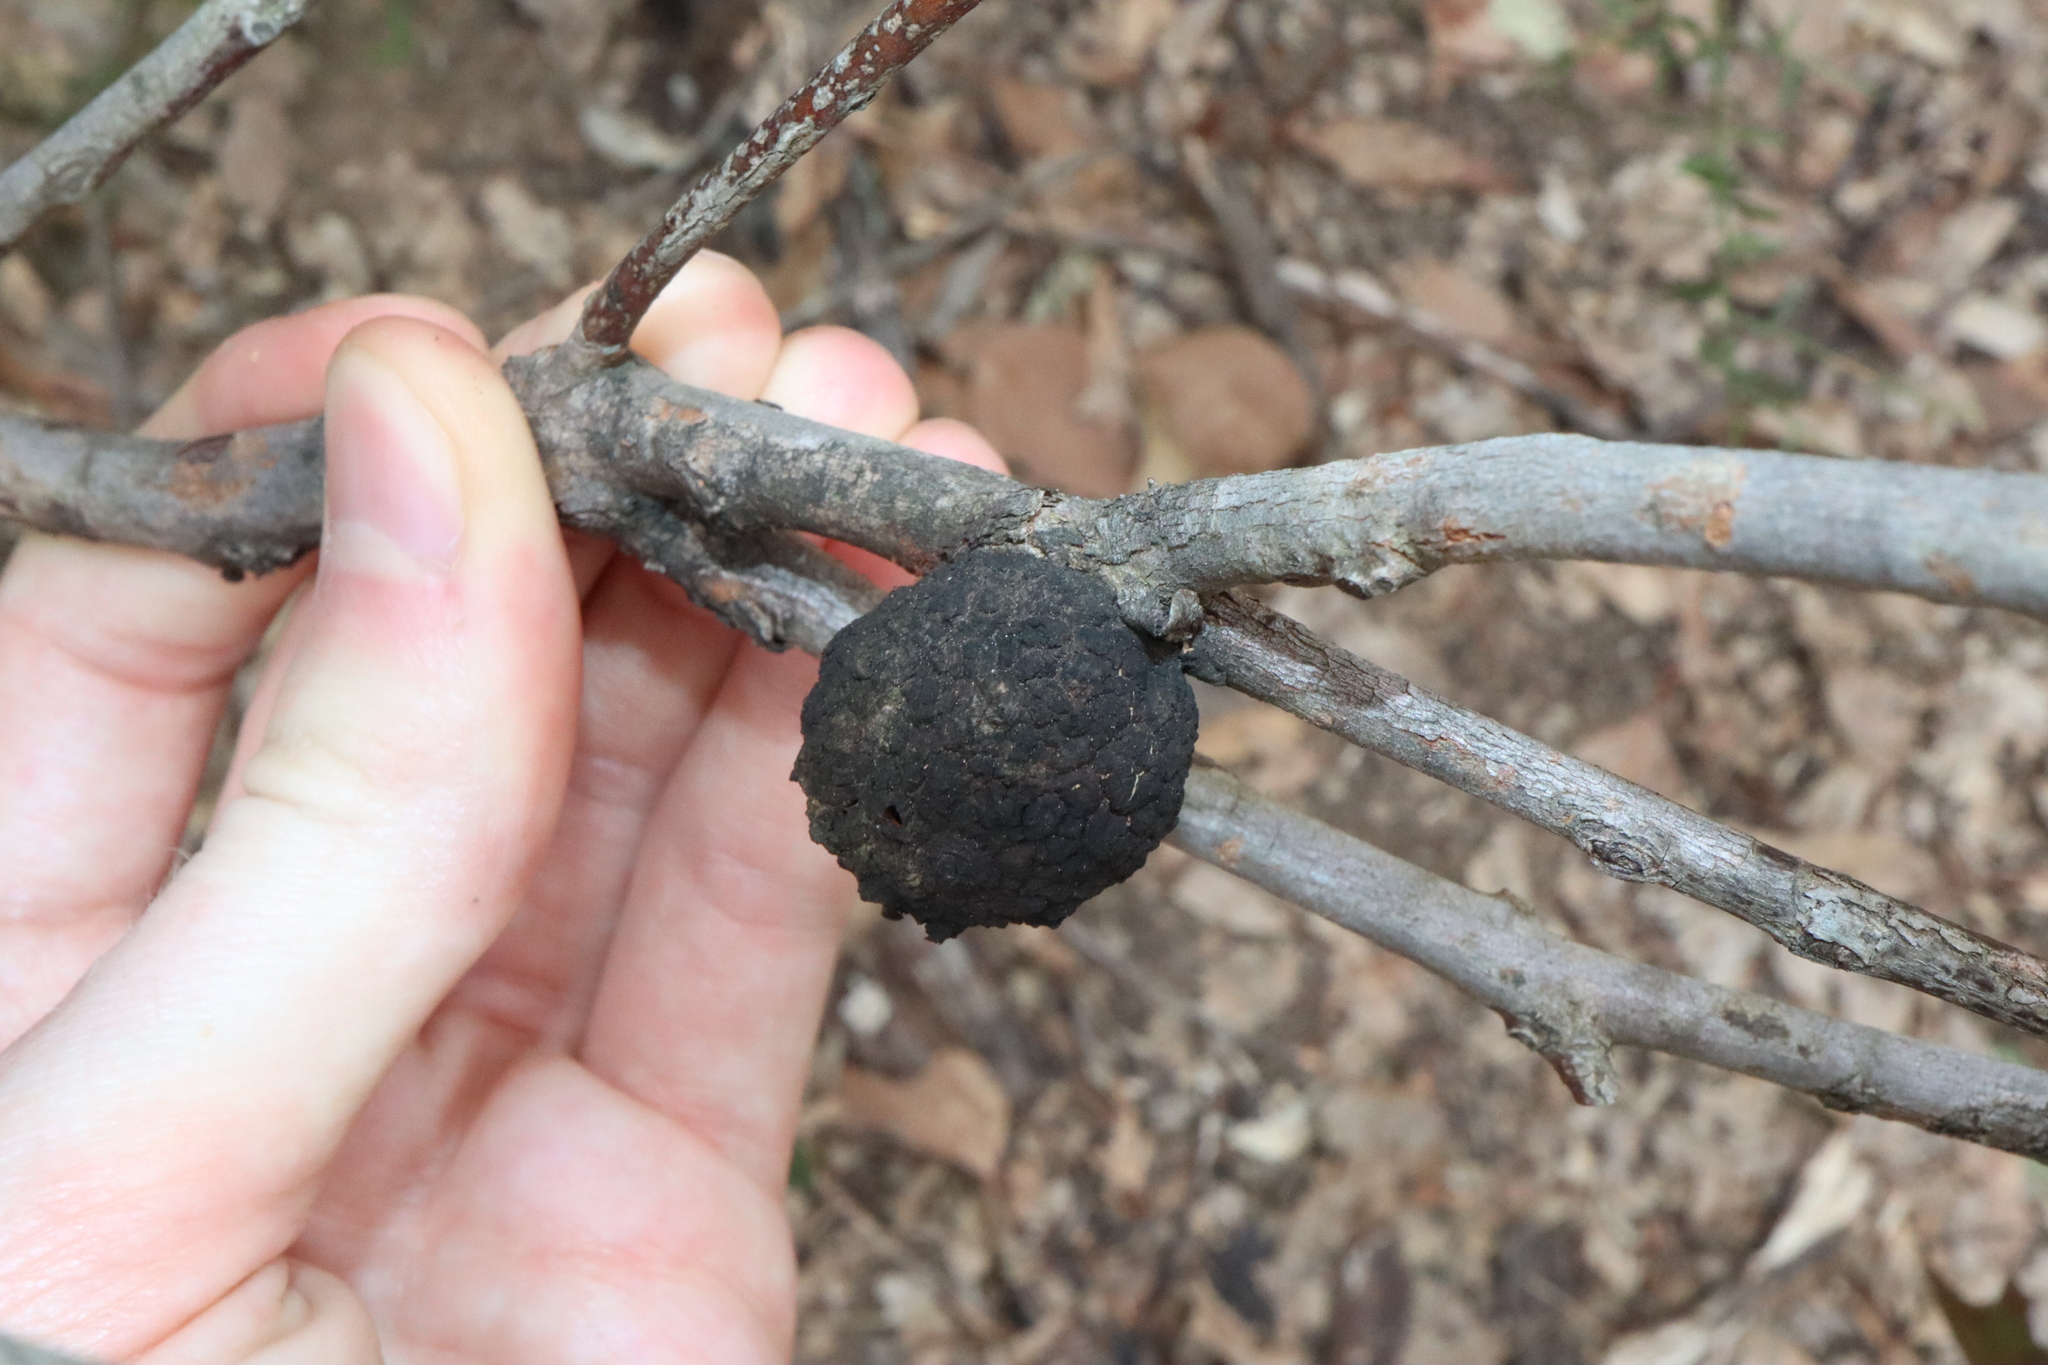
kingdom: Animalia
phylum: Arthropoda
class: Insecta
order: Hemiptera
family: Eriococcidae
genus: Apiomorpha
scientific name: Apiomorpha strombylosa
